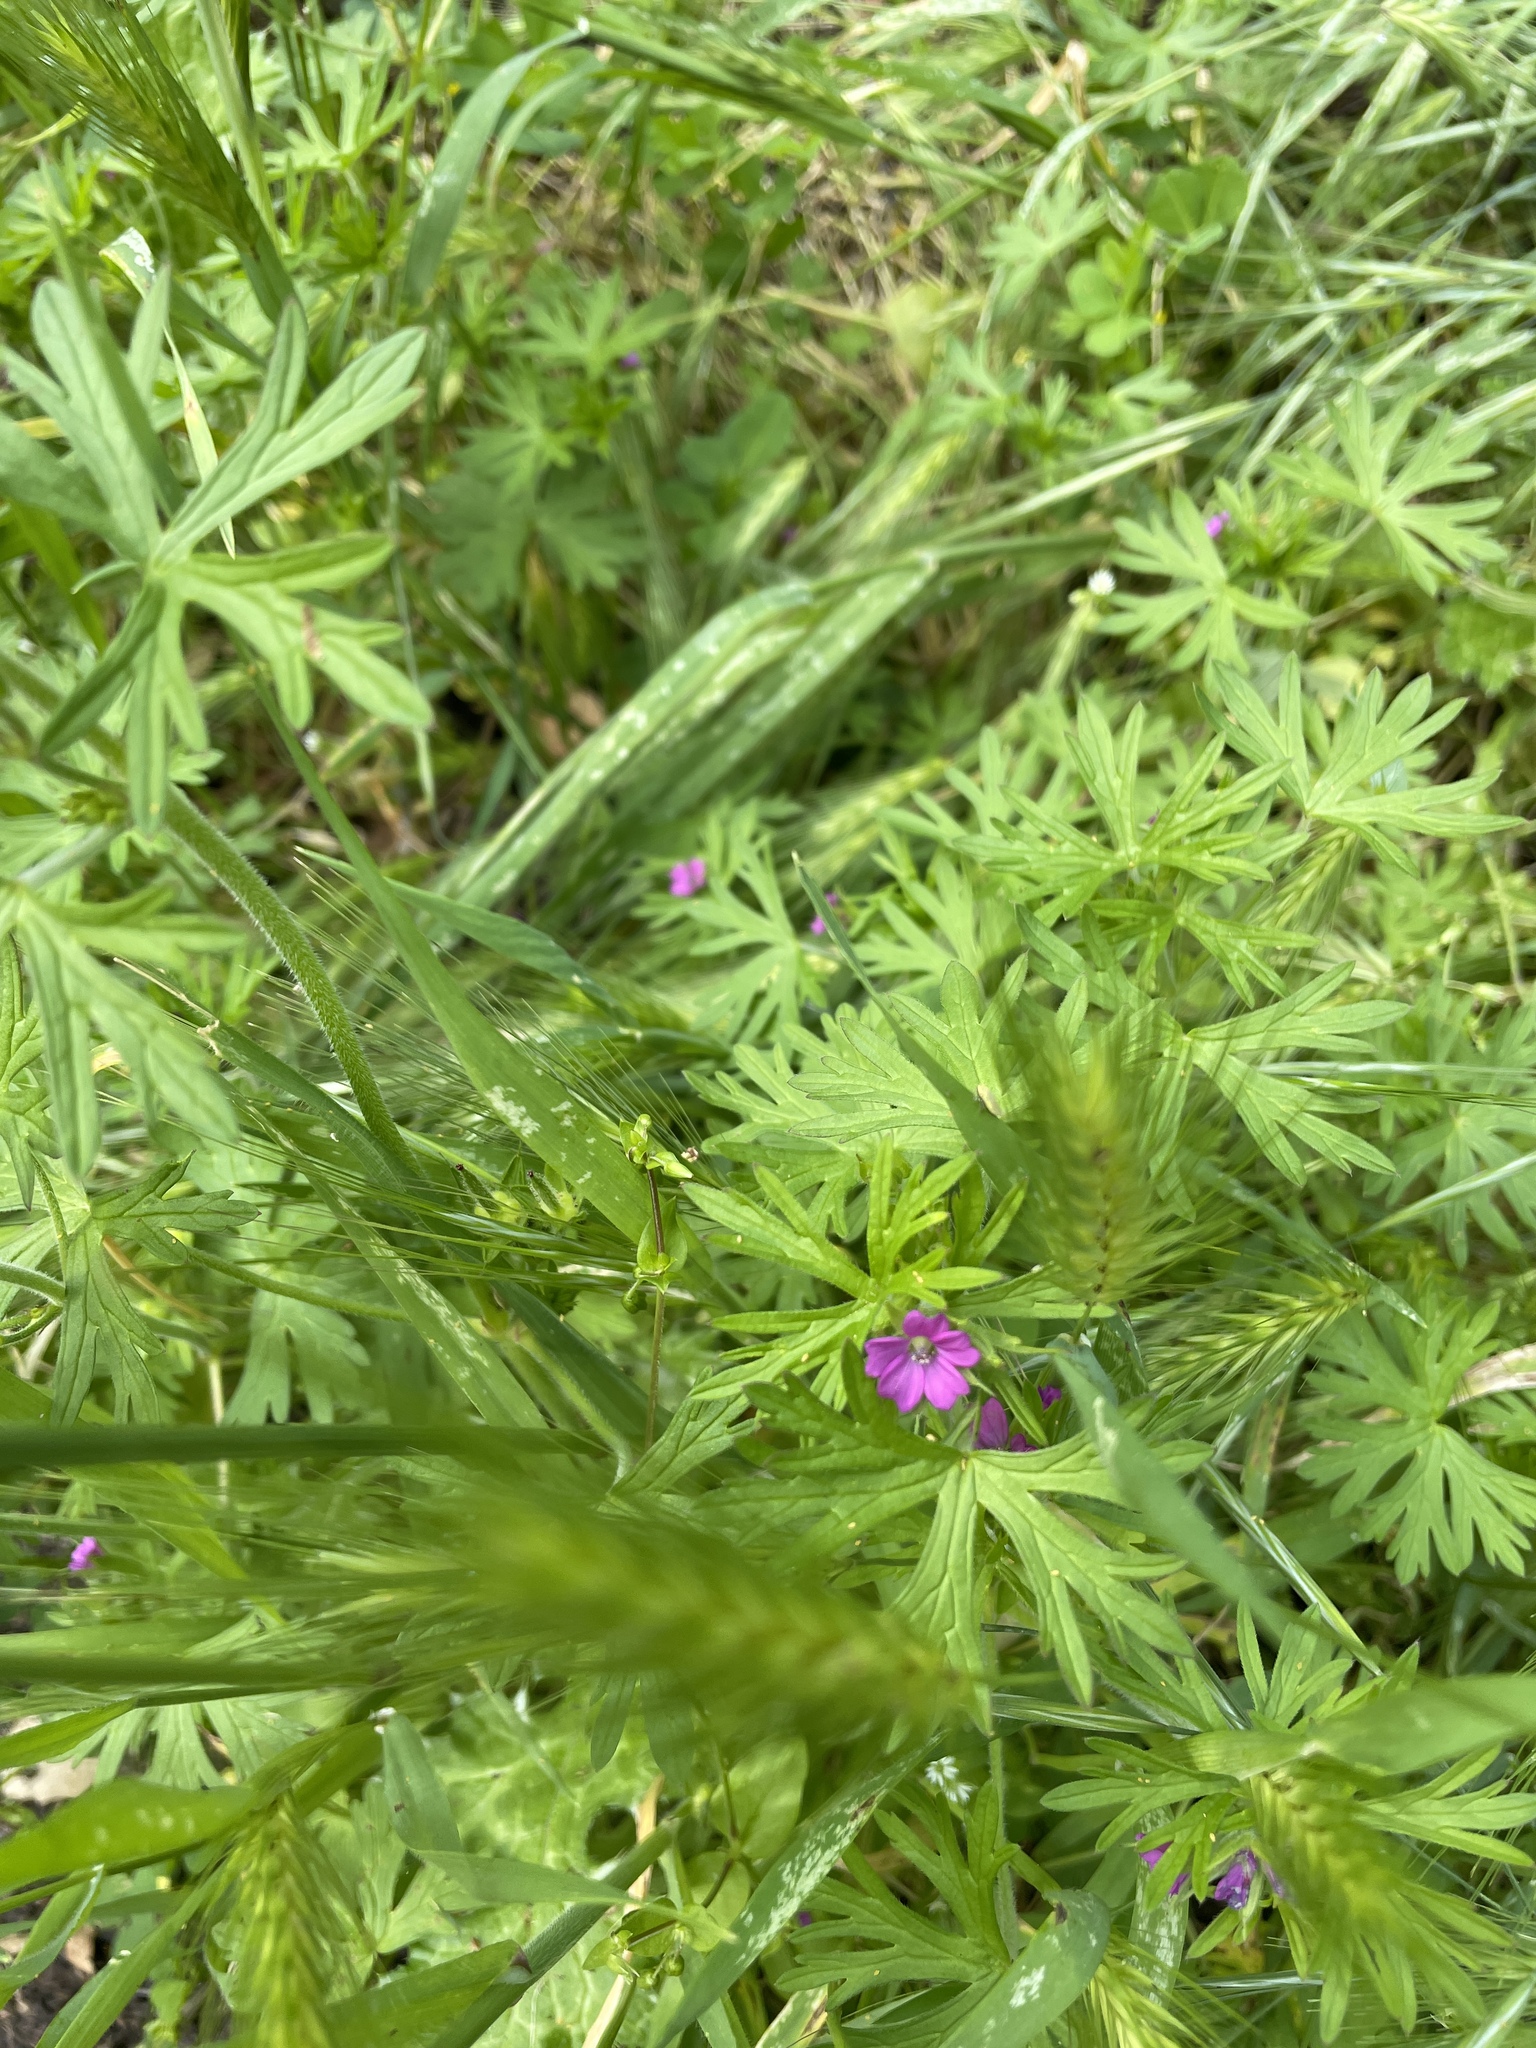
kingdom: Plantae
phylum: Tracheophyta
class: Magnoliopsida
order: Geraniales
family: Geraniaceae
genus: Geranium
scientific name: Geranium dissectum
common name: Cut-leaved crane's-bill
